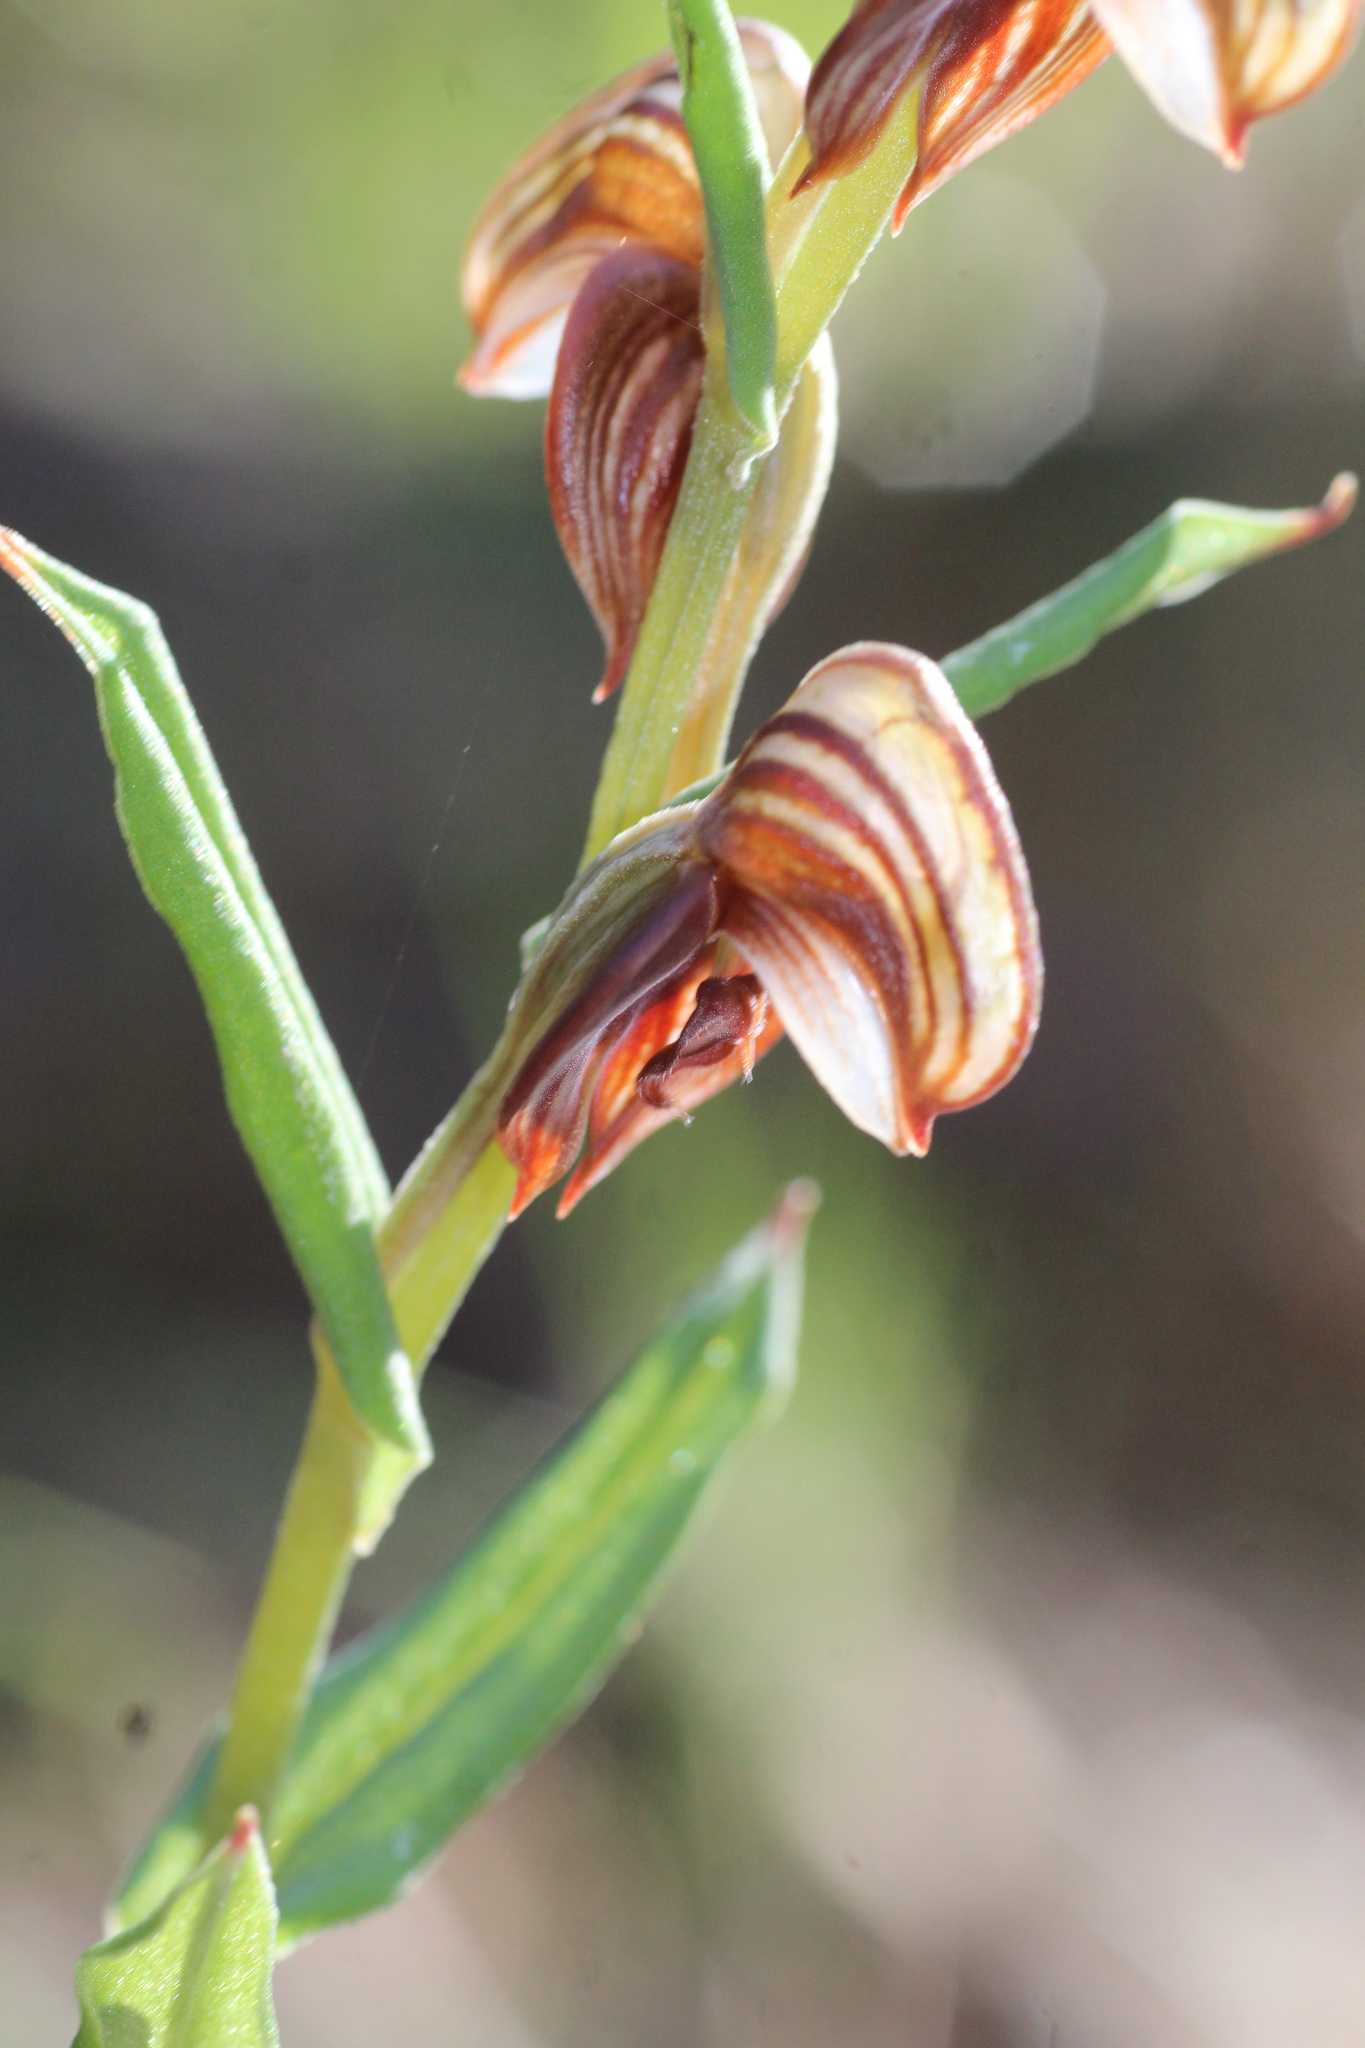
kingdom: Plantae
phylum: Tracheophyta
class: Liliopsida
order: Asparagales
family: Orchidaceae
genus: Pterostylis
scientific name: Pterostylis orbiculata
